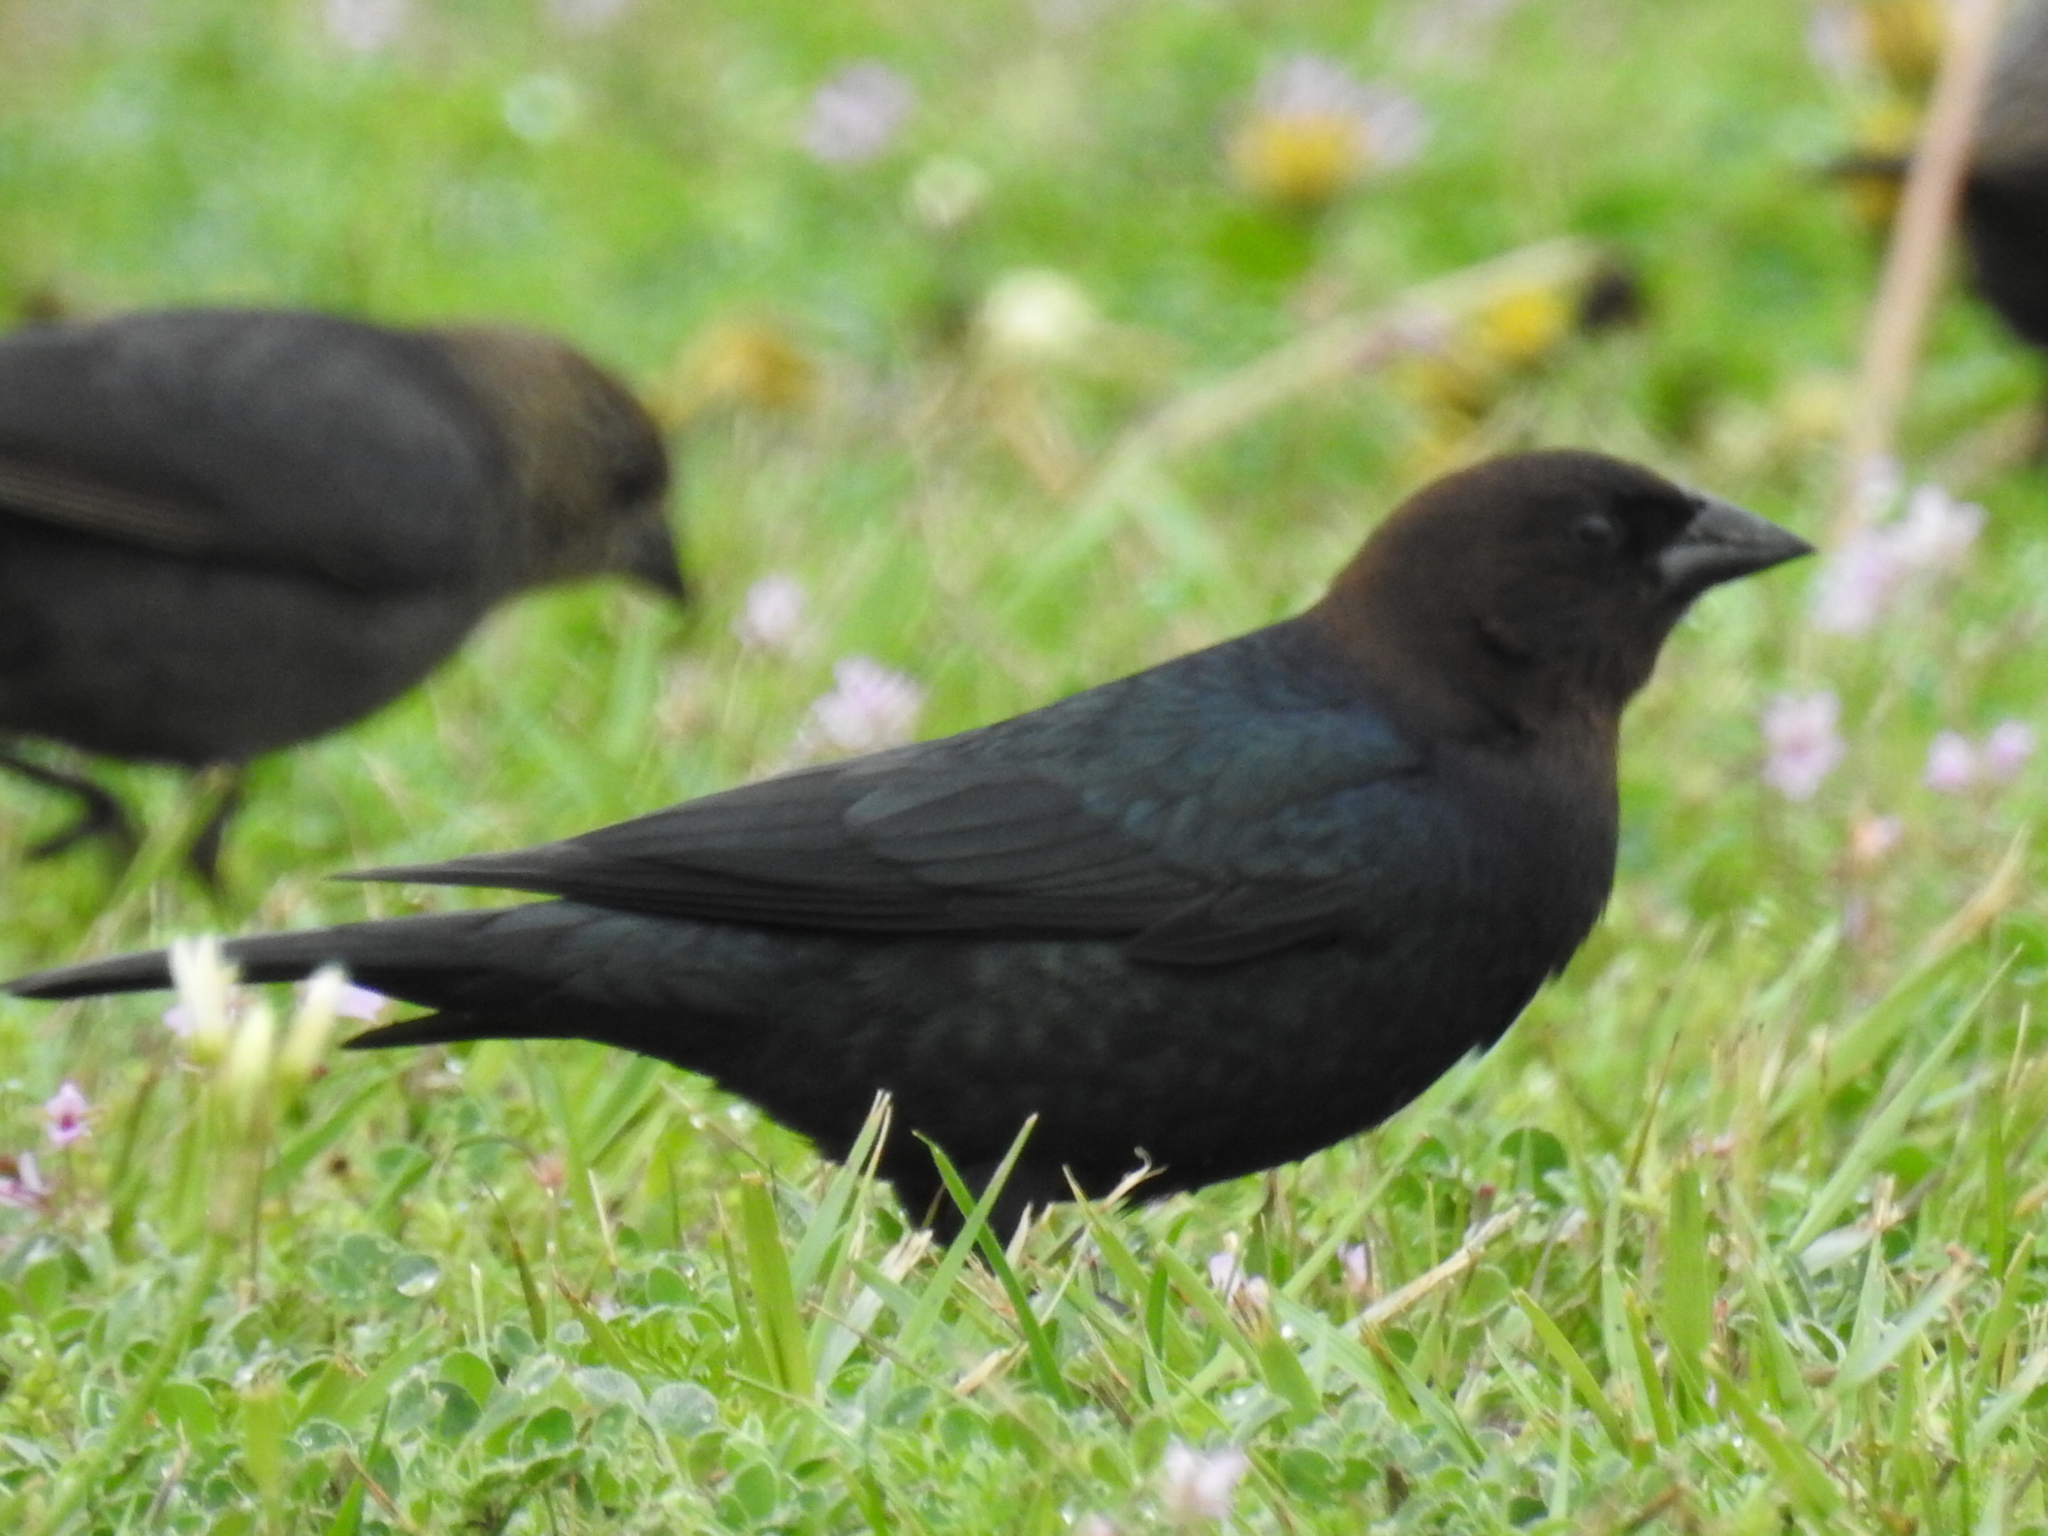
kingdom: Animalia
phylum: Chordata
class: Aves
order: Passeriformes
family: Icteridae
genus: Molothrus
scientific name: Molothrus ater
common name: Brown-headed cowbird
